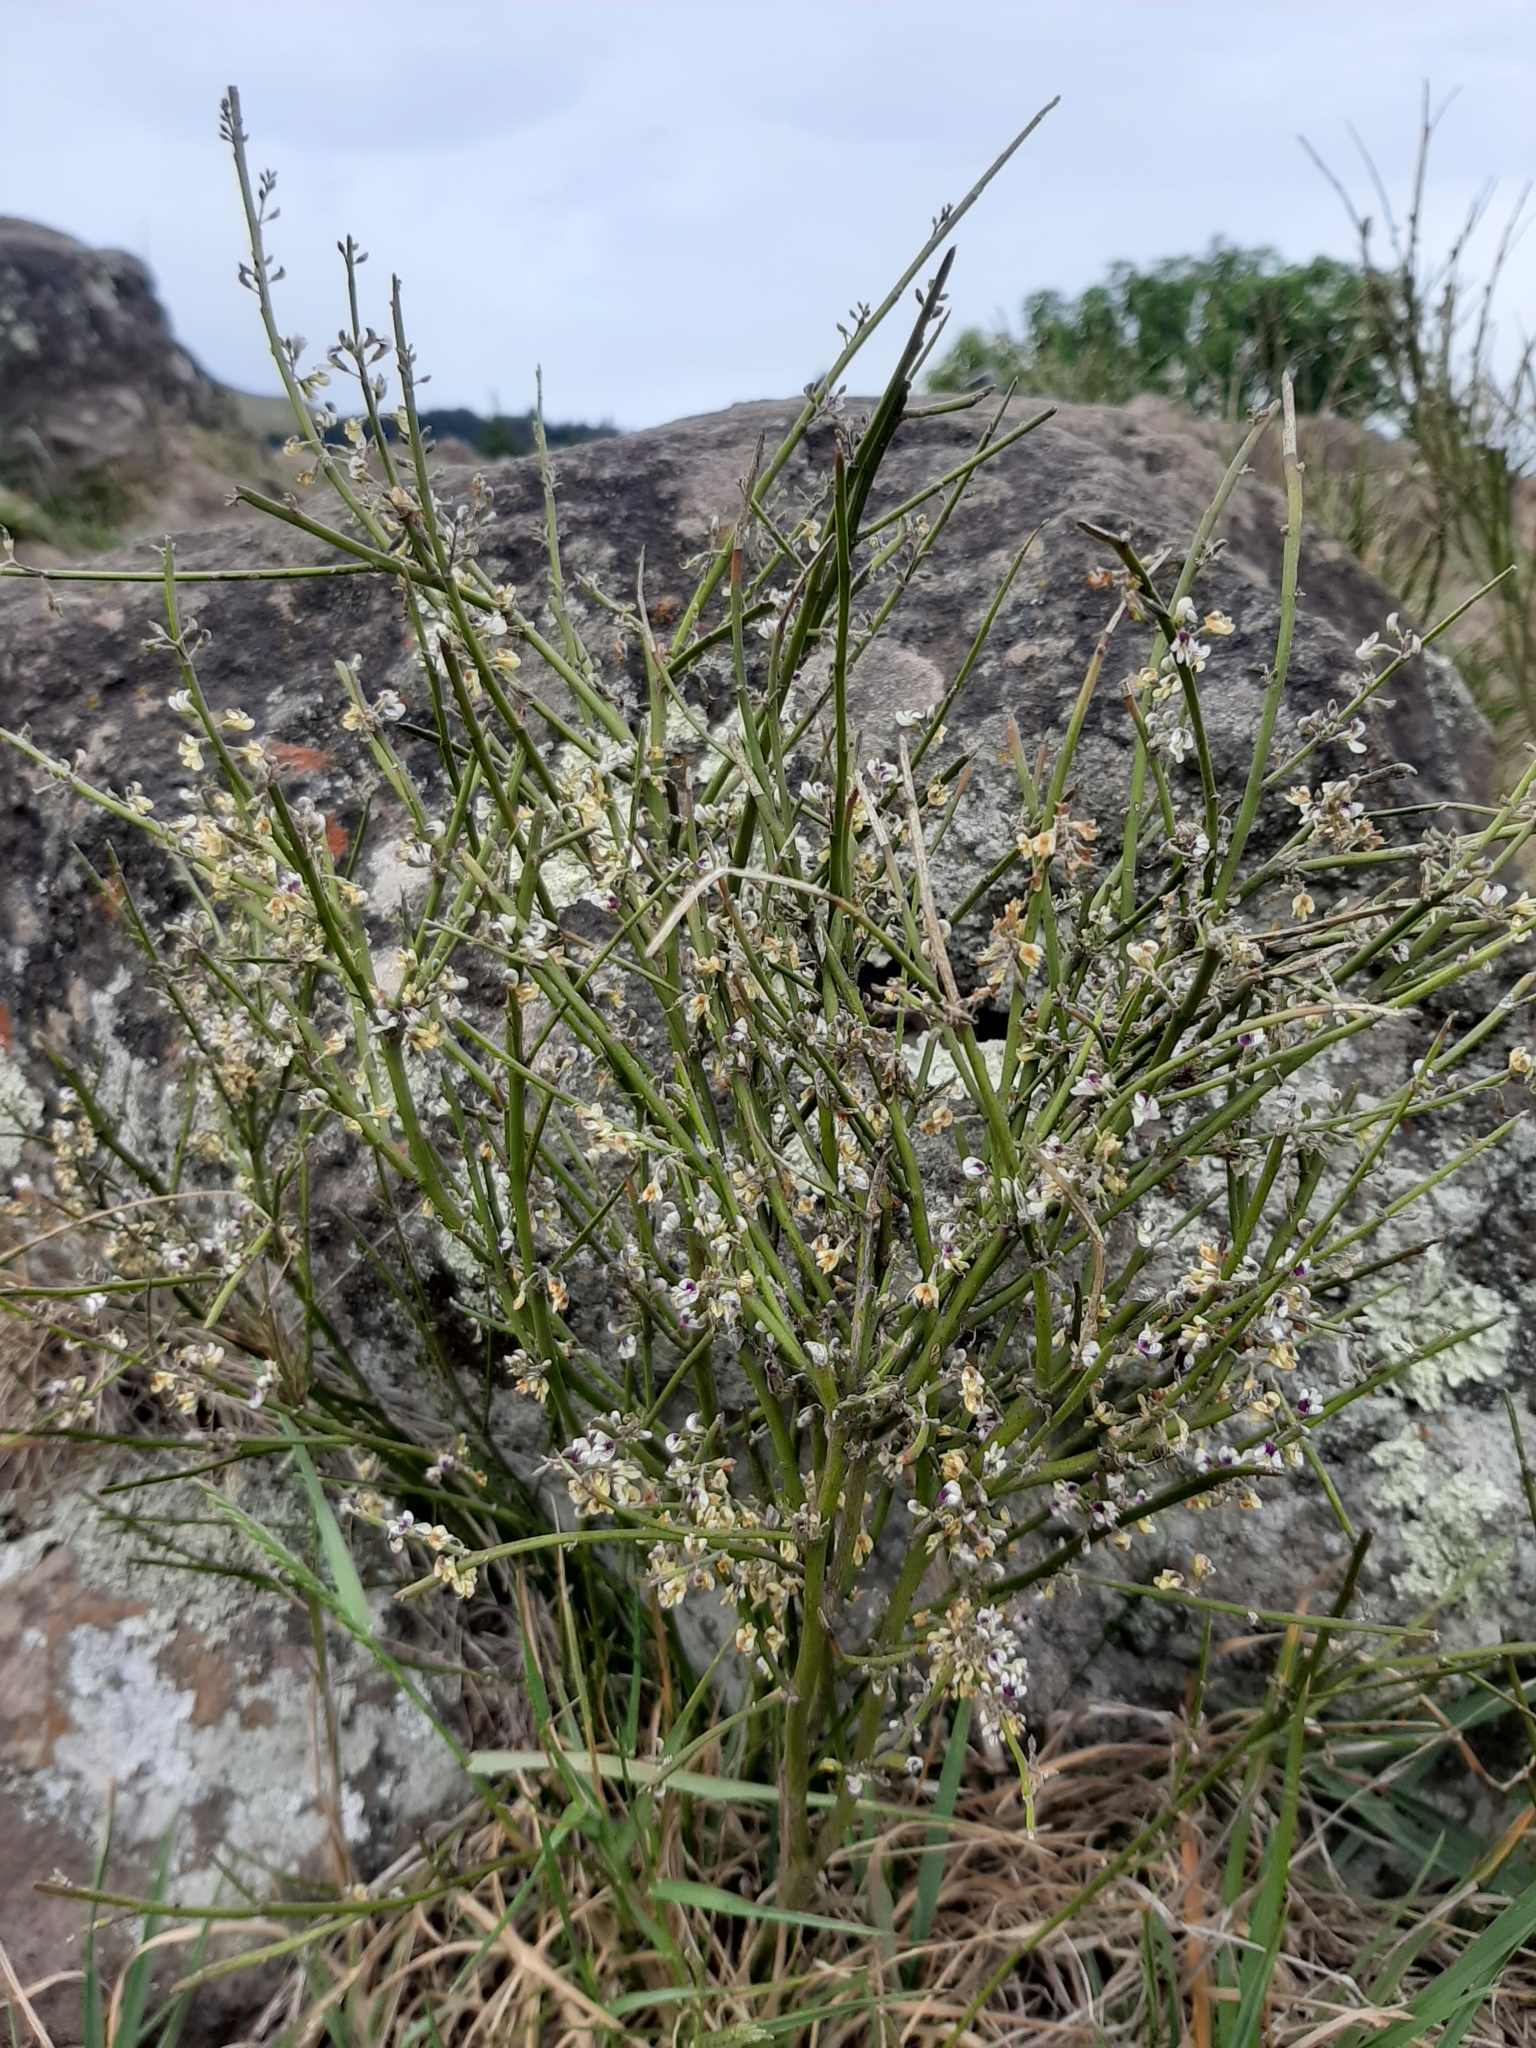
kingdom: Plantae
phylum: Tracheophyta
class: Magnoliopsida
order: Fabales
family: Fabaceae
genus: Carmichaelia
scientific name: Carmichaelia australis
